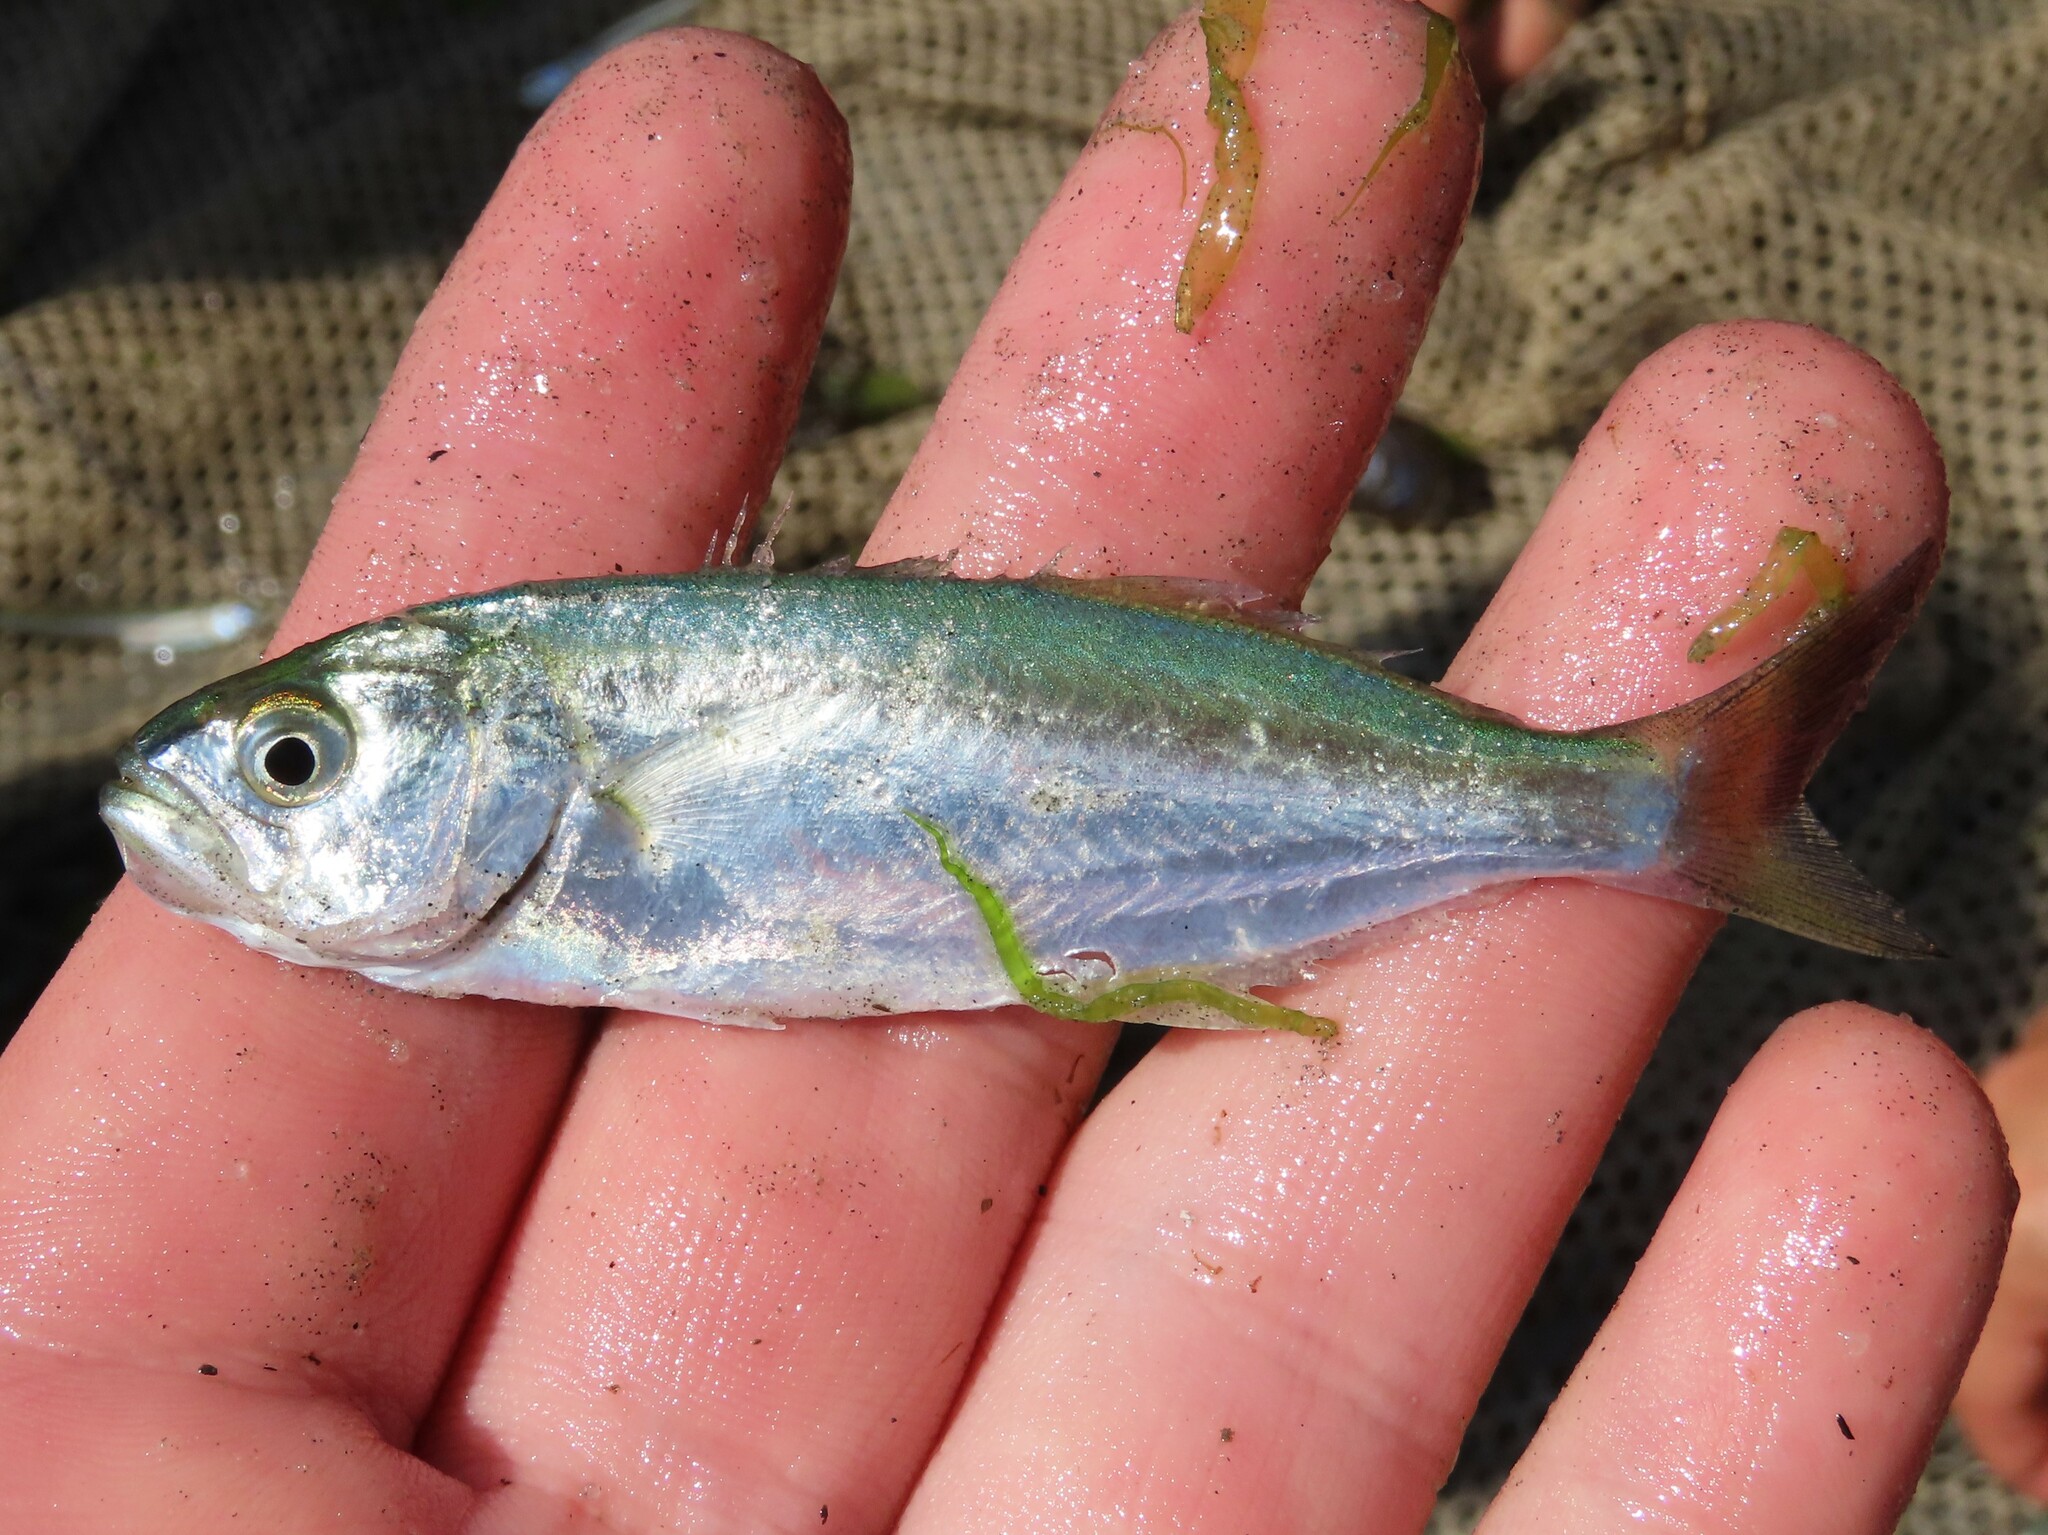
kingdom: Animalia
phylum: Chordata
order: Perciformes
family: Pomatomidae
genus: Pomatomus
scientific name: Pomatomus saltatrix
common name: Bluefish
